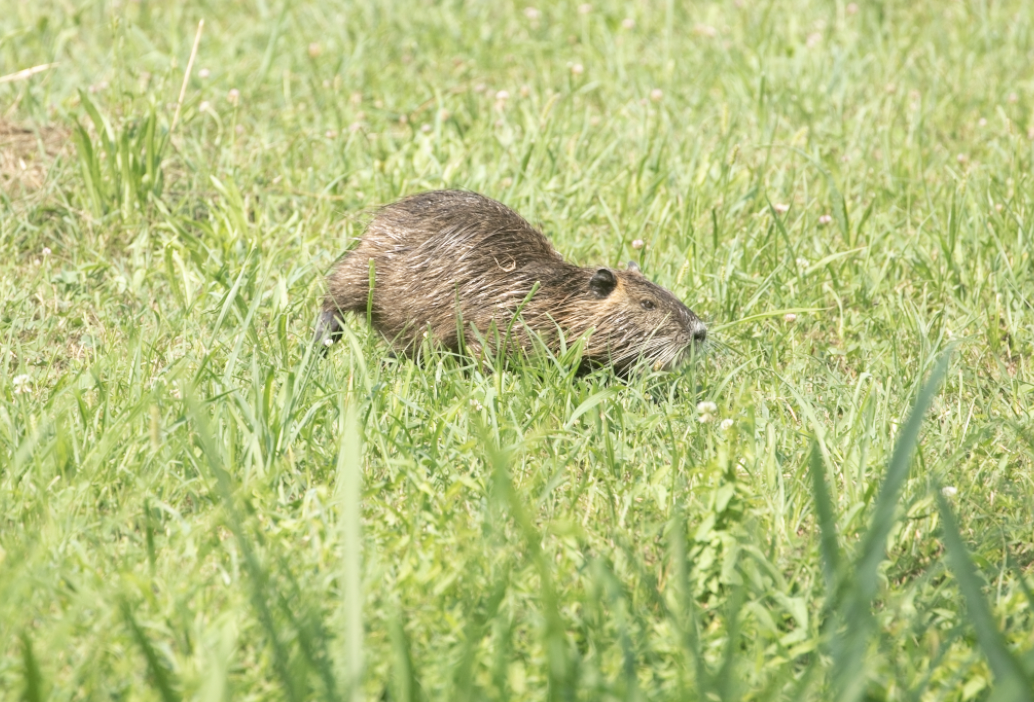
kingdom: Animalia
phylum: Chordata
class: Mammalia
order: Rodentia
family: Myocastoridae
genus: Myocastor
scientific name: Myocastor coypus
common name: Coypu
